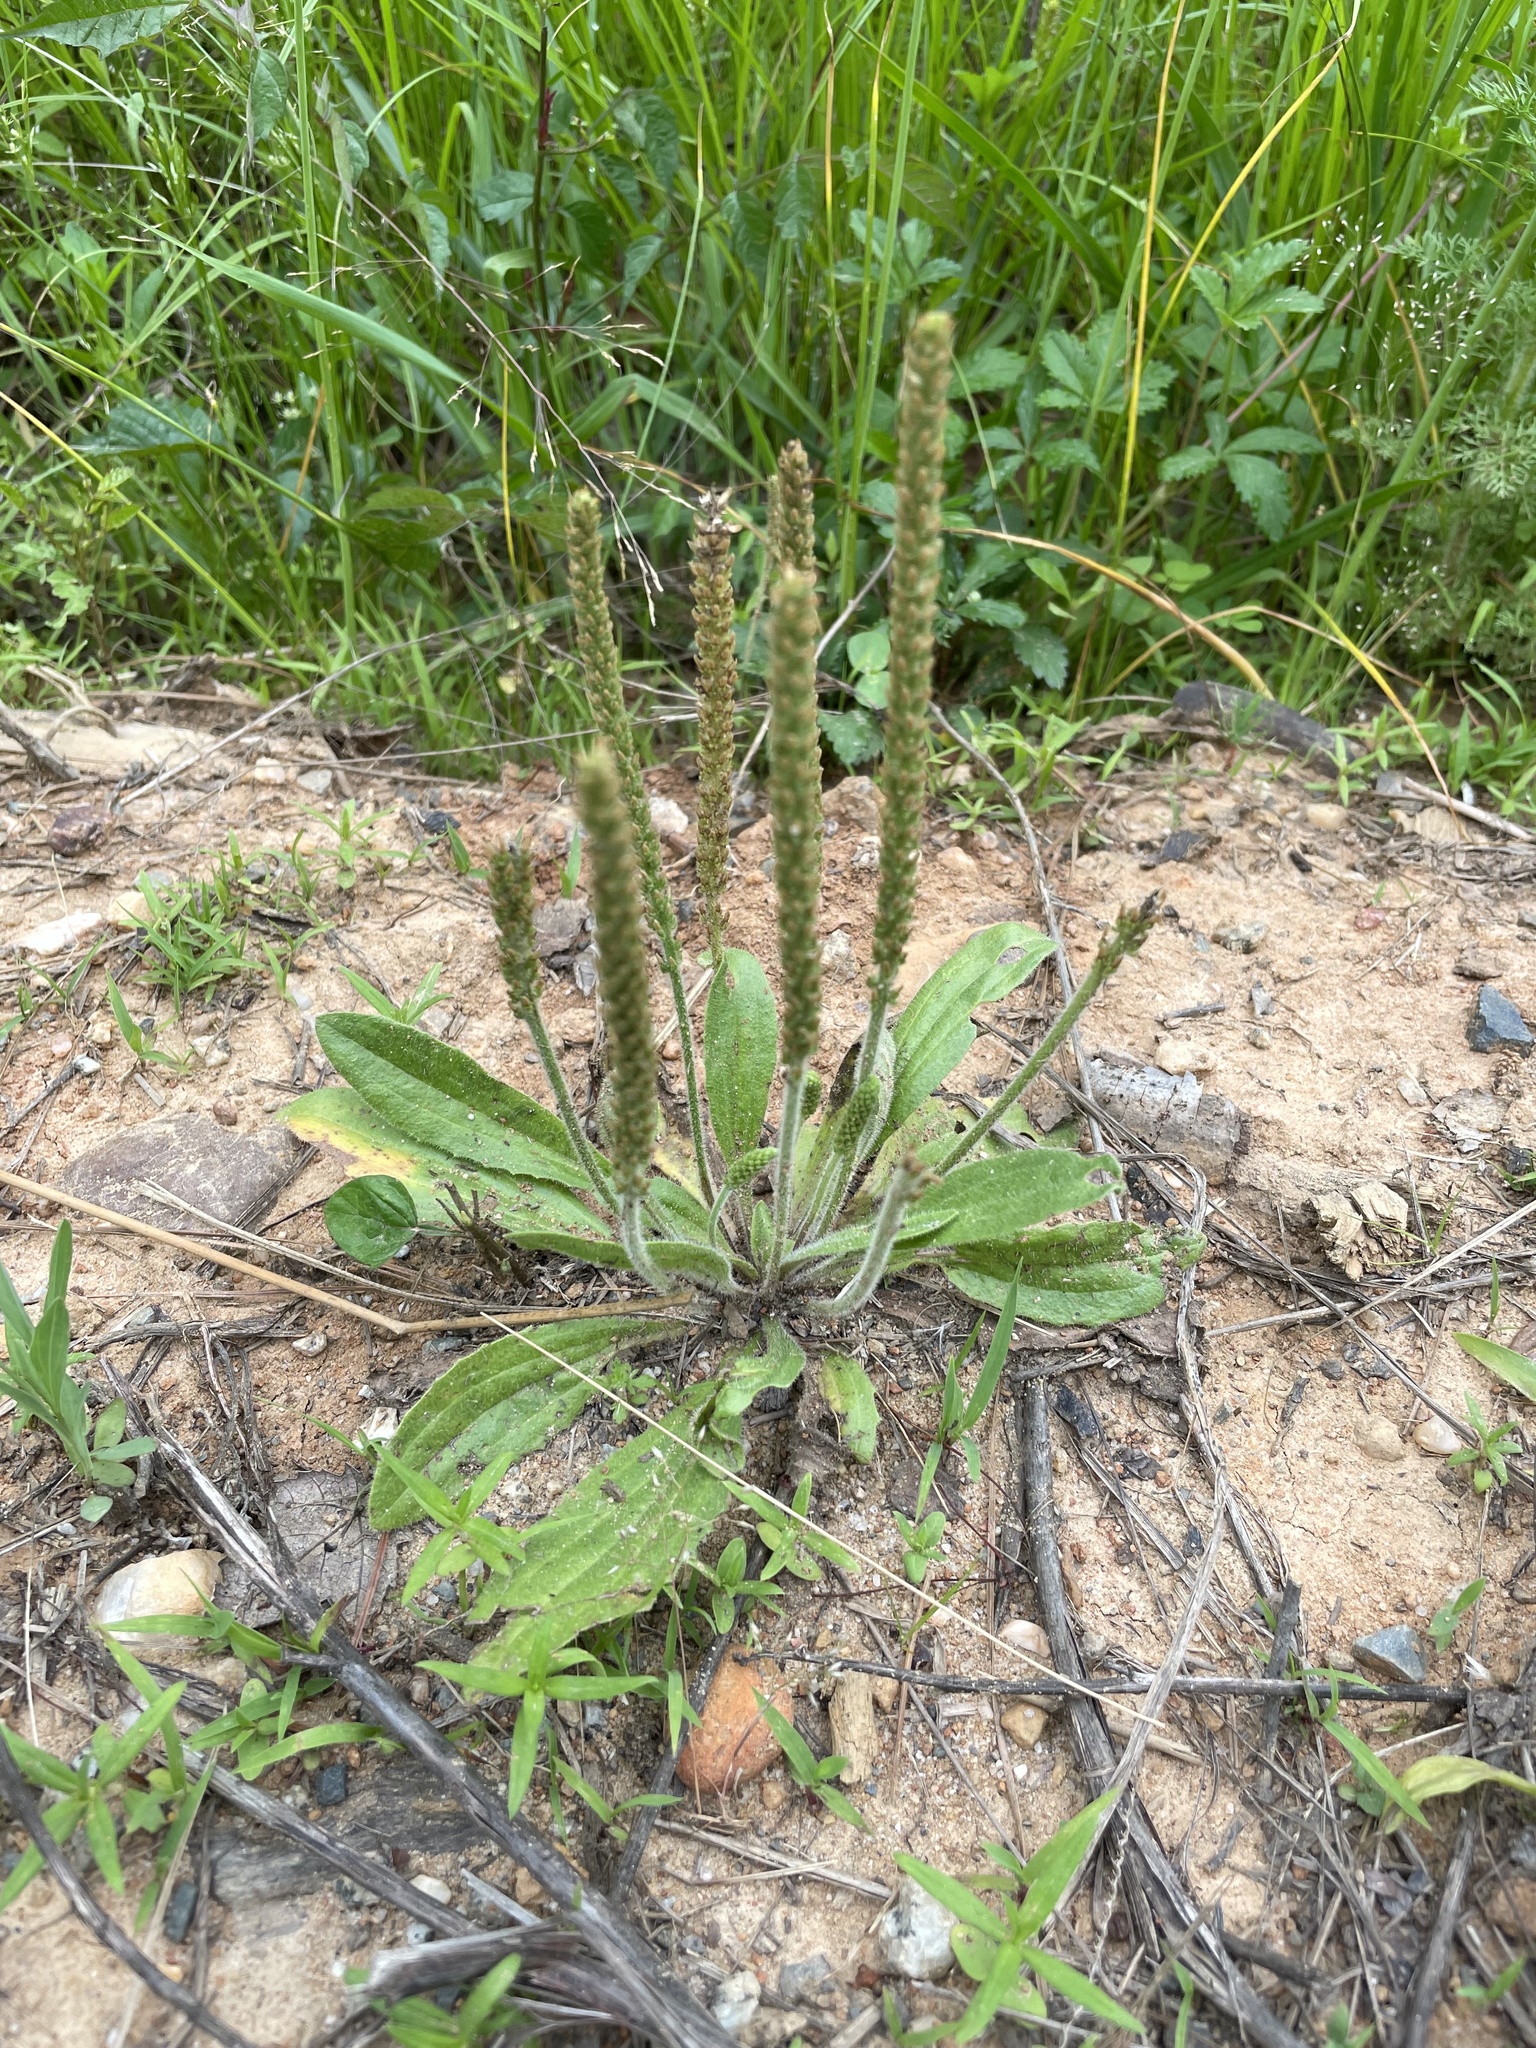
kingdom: Plantae
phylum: Tracheophyta
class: Magnoliopsida
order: Lamiales
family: Plantaginaceae
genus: Plantago
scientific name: Plantago virginica
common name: Hoary plantain
